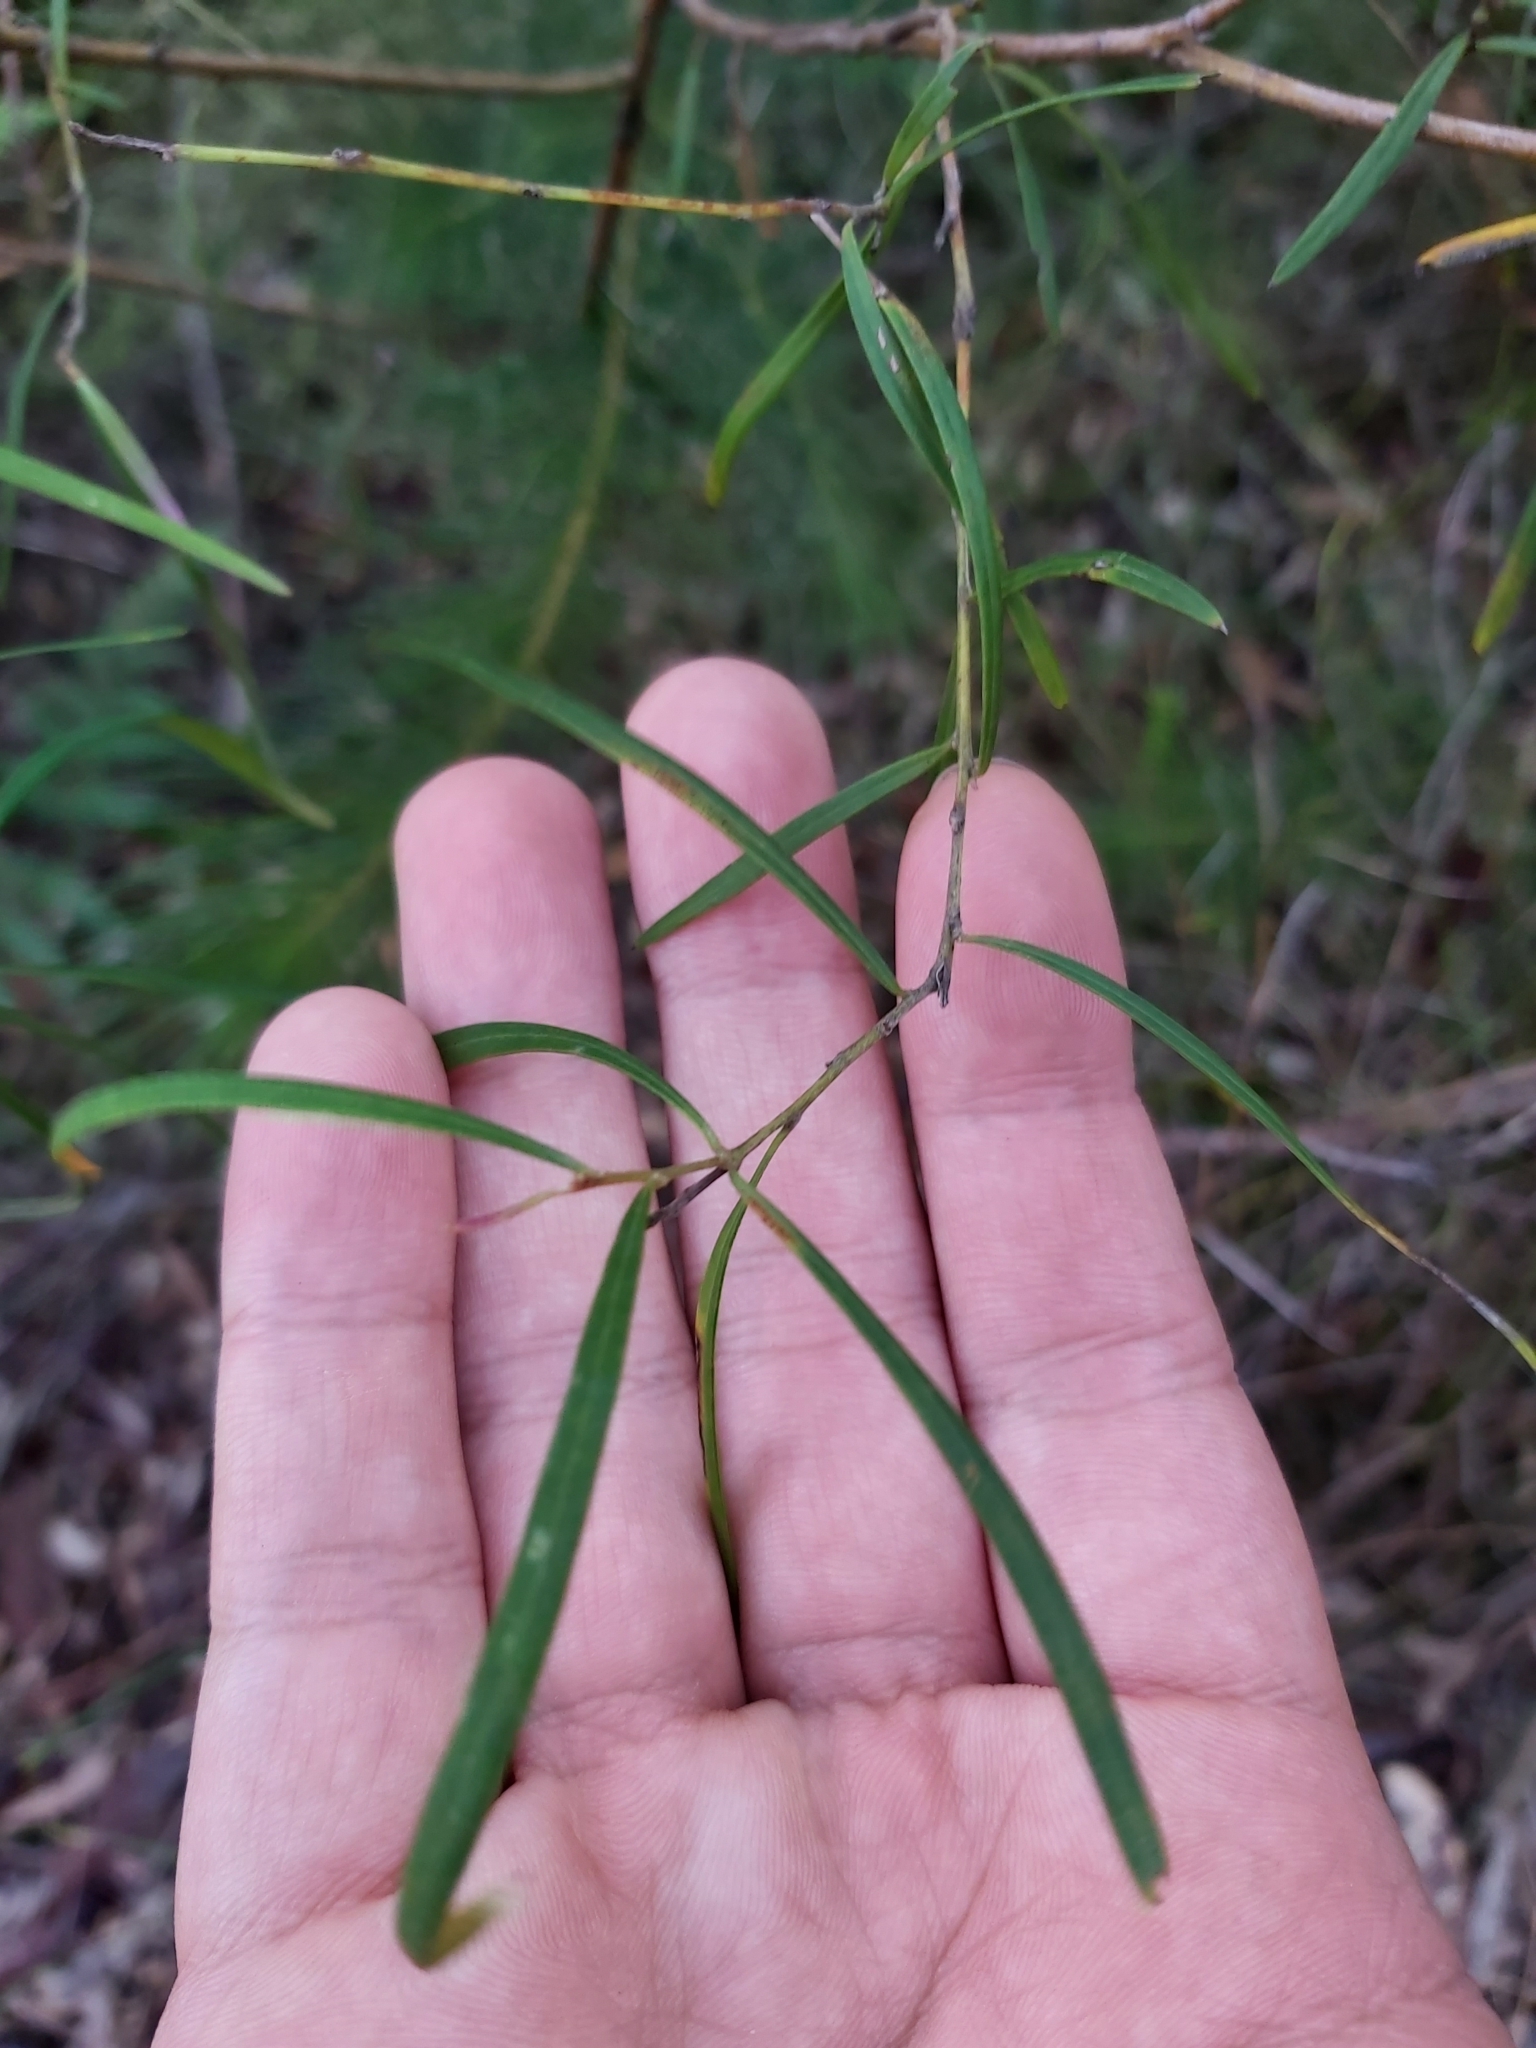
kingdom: Plantae
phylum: Tracheophyta
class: Magnoliopsida
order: Proteales
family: Proteaceae
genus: Grevillea
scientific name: Grevillea linearifolia
